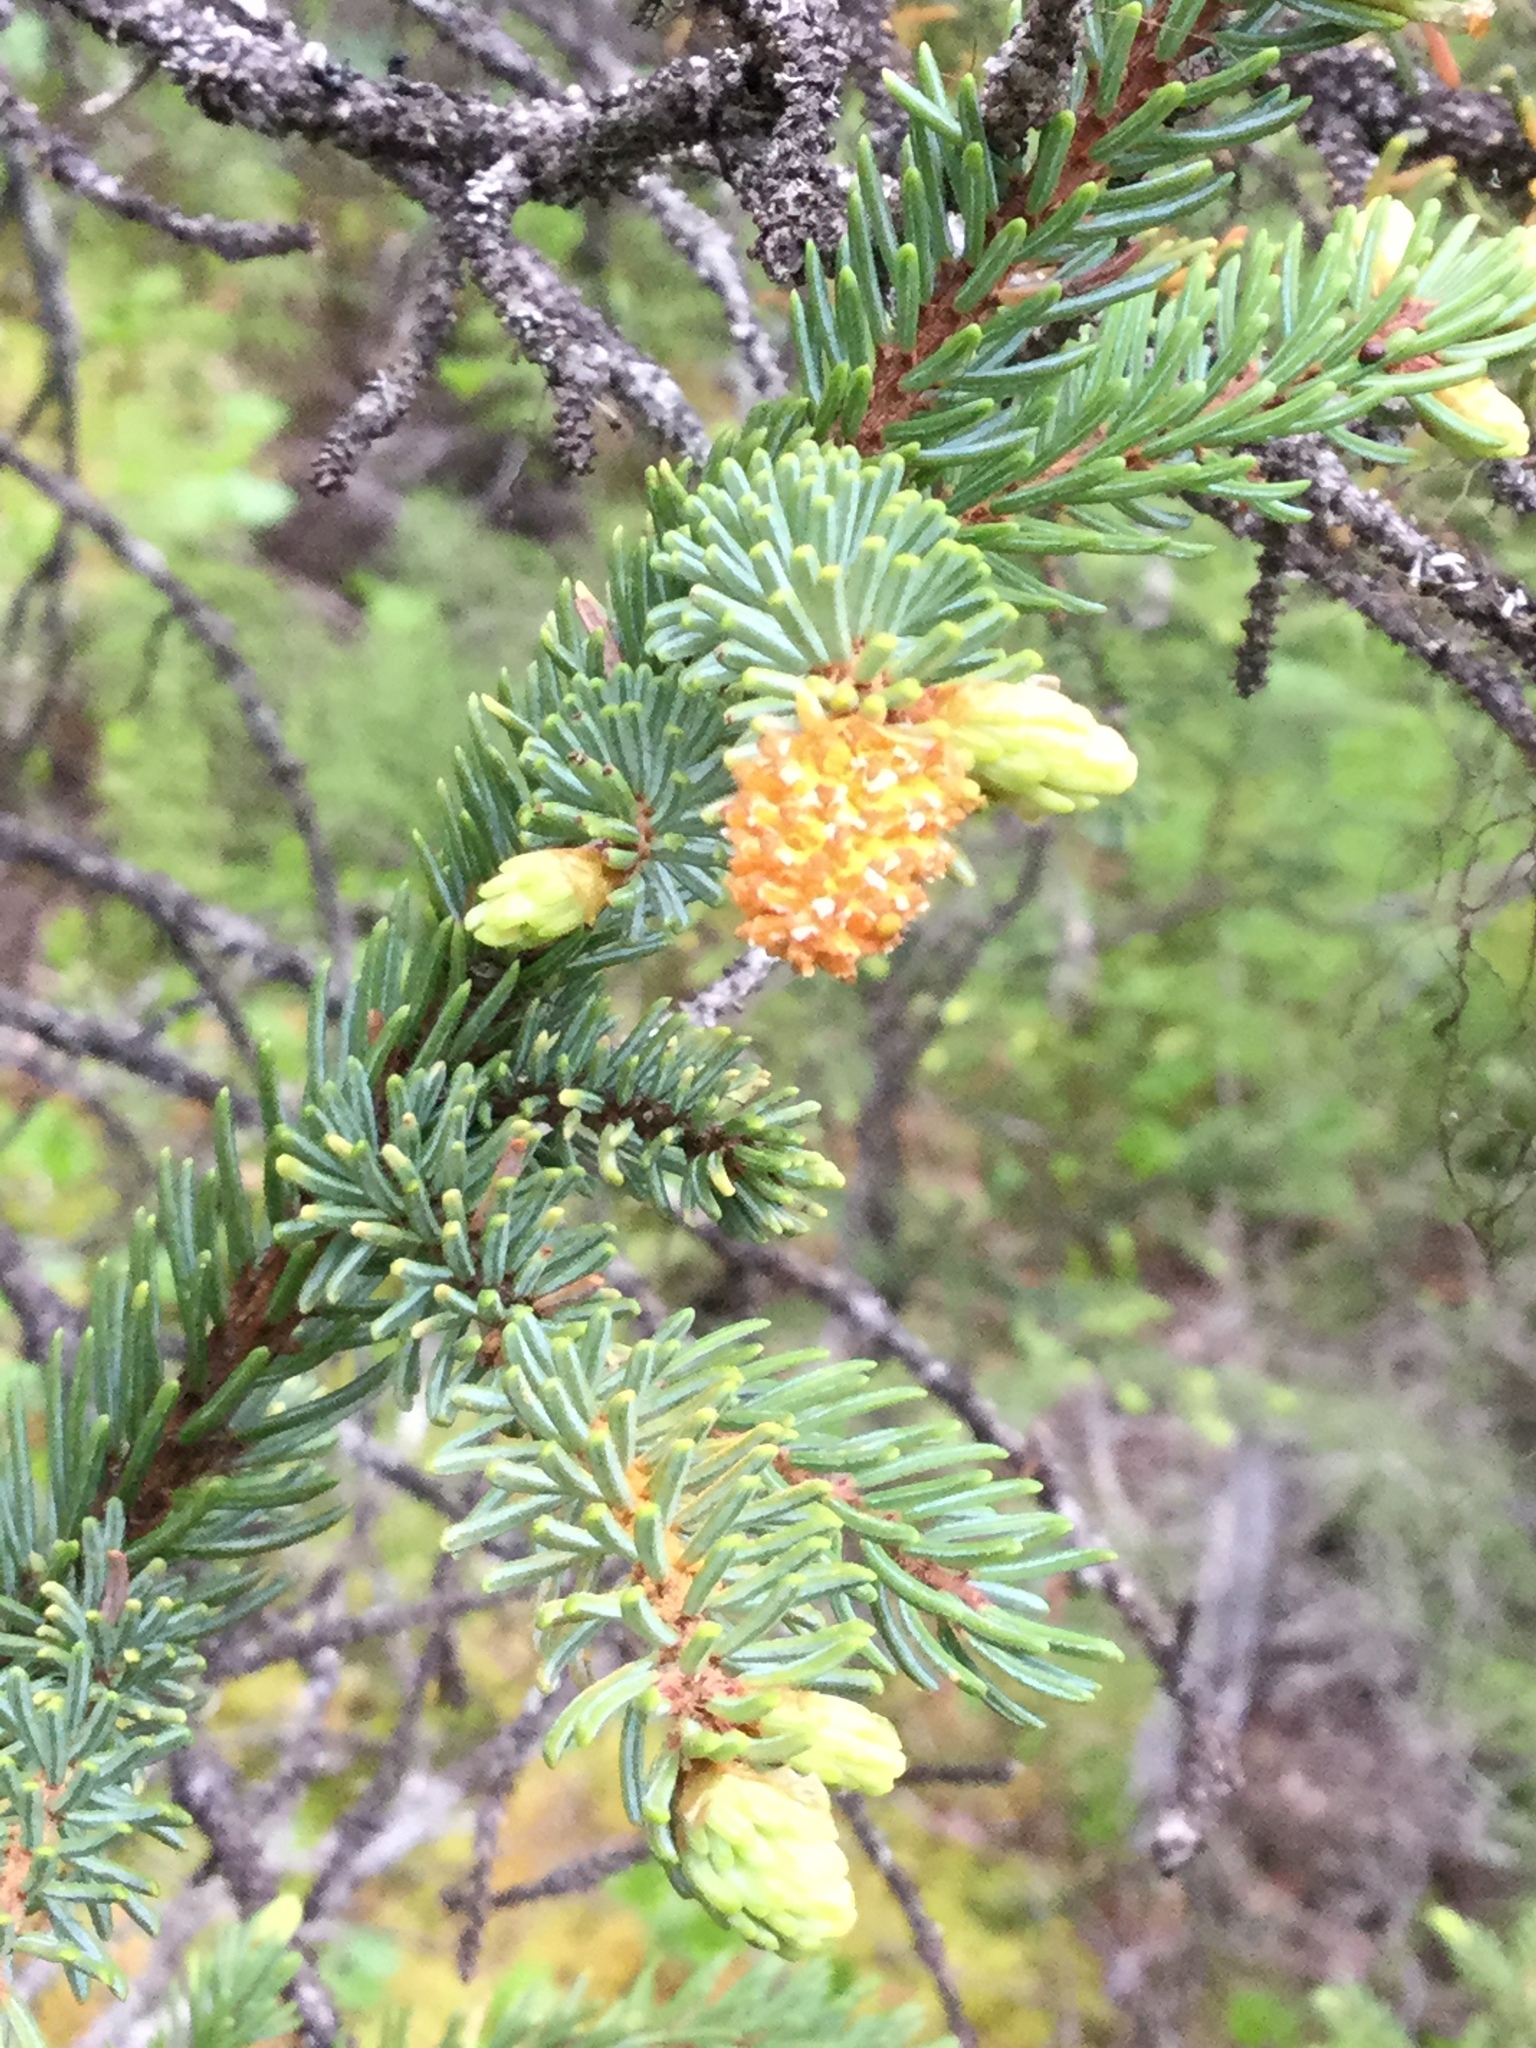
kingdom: Fungi
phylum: Basidiomycota
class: Pucciniomycetes
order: Pucciniales
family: Coleosporiaceae
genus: Chrysomyxa
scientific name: Chrysomyxa woroninii
